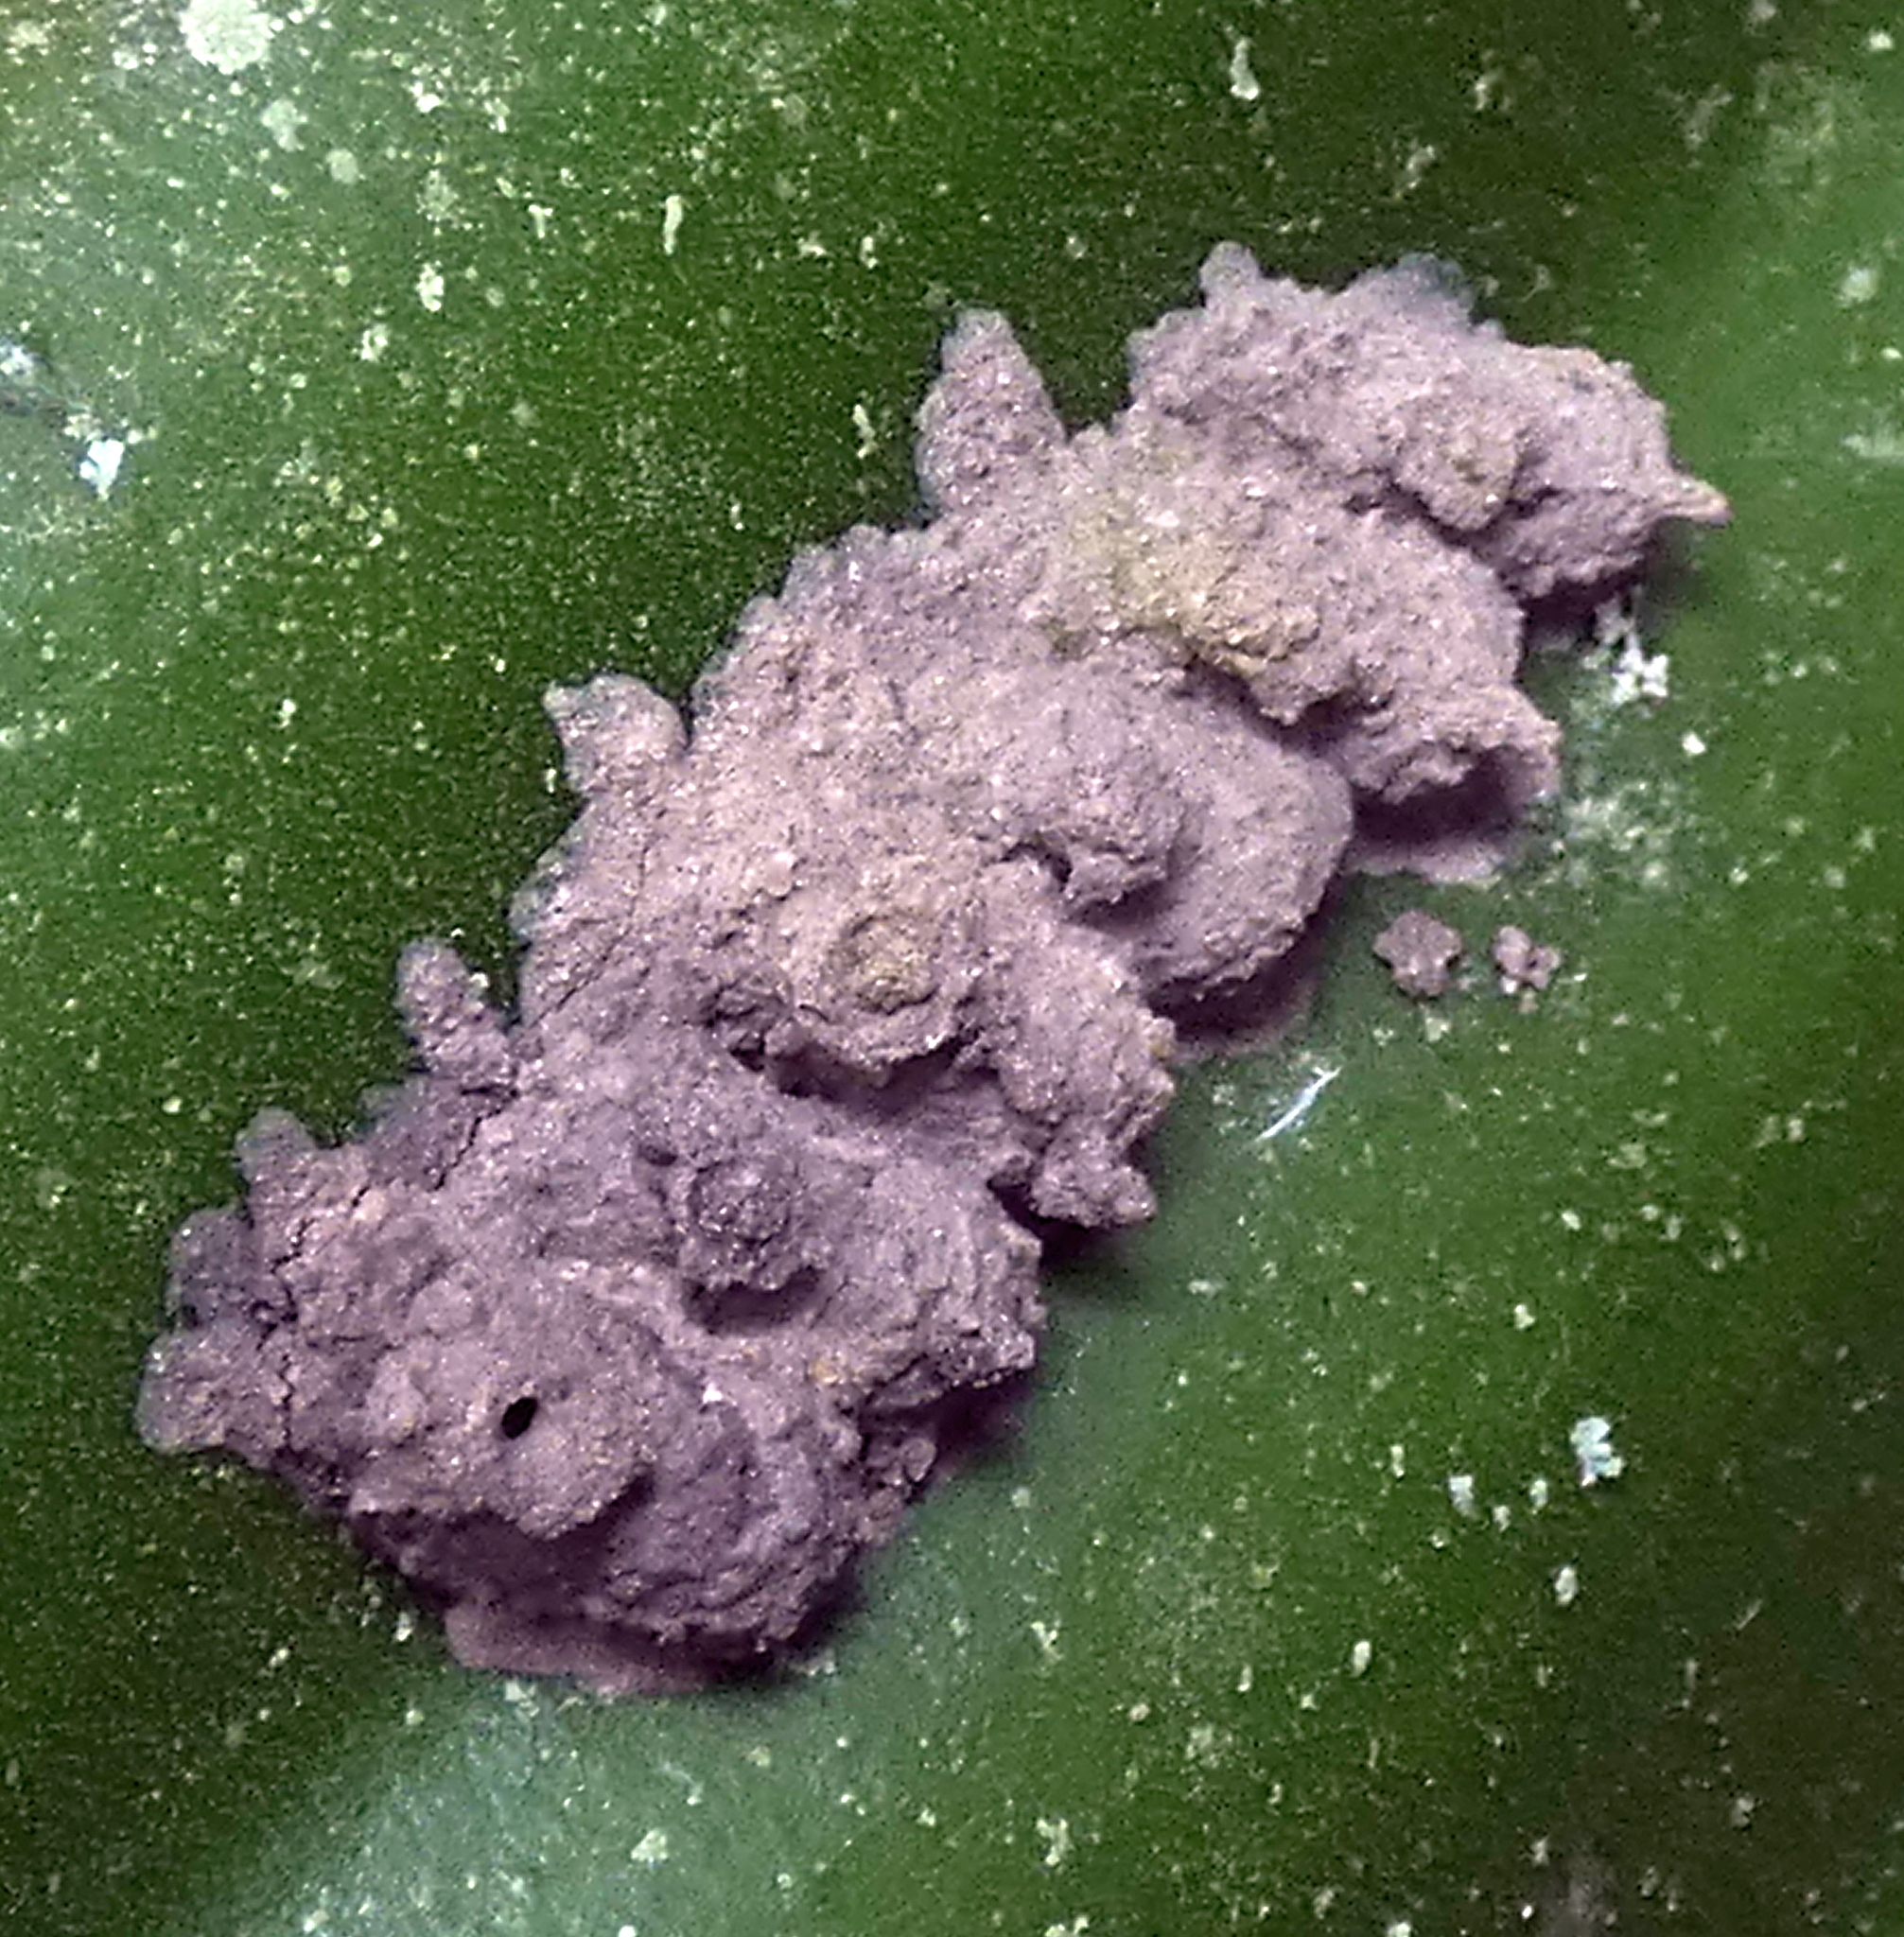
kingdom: Animalia
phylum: Arthropoda
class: Insecta
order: Hymenoptera
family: Eumenidae
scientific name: Eumenidae
